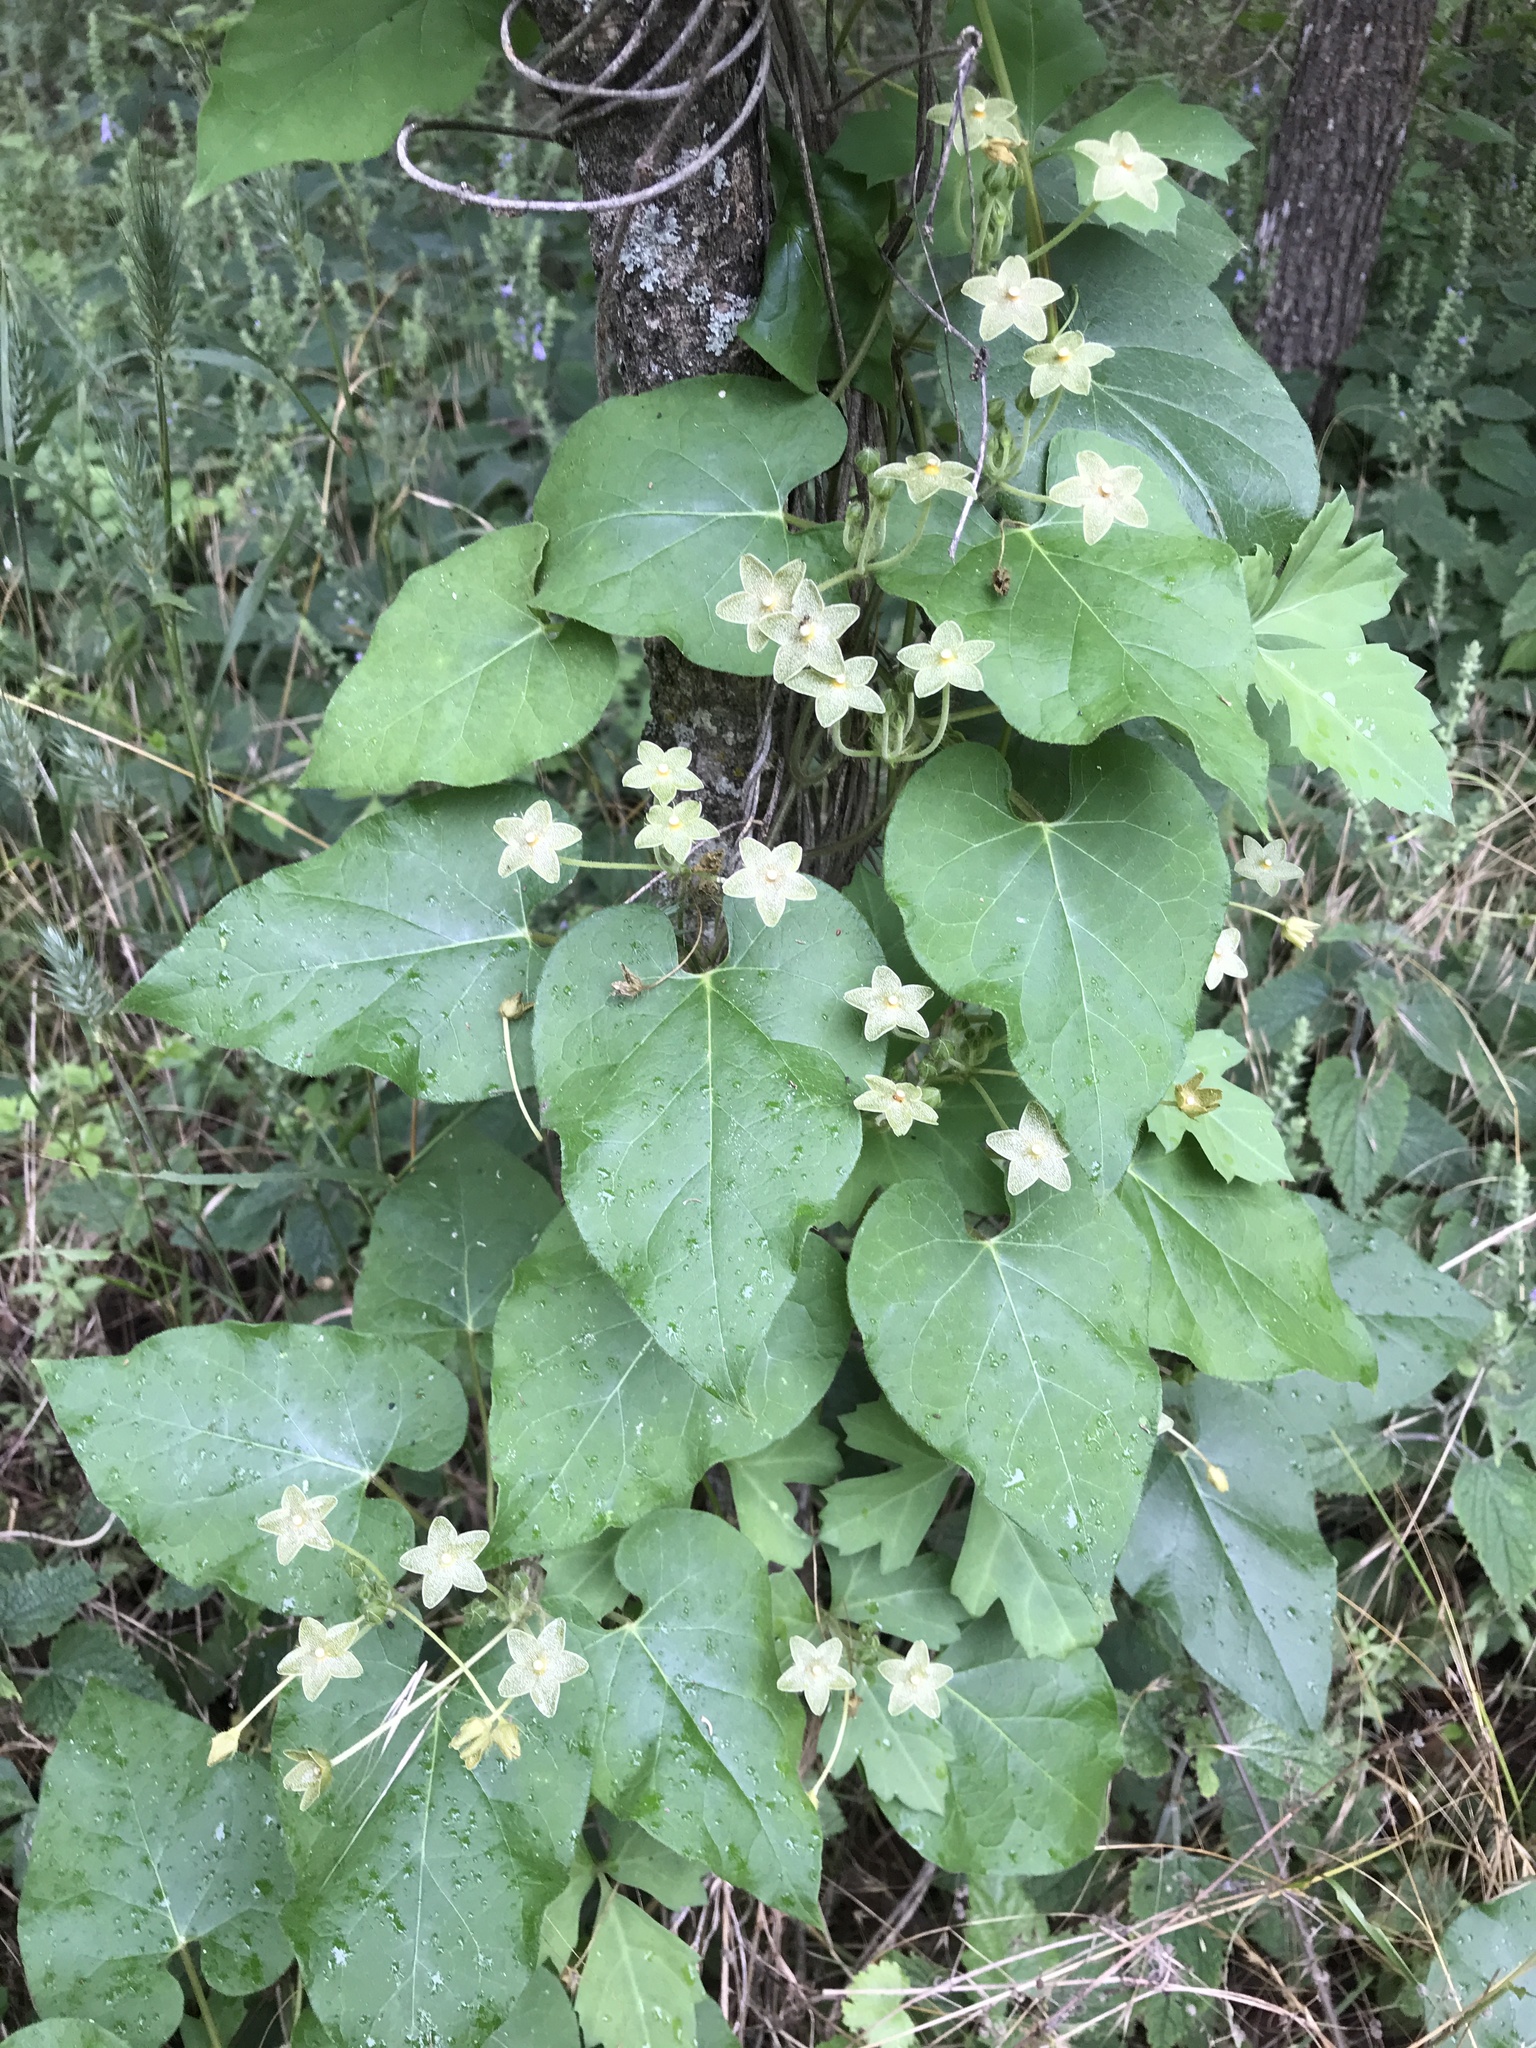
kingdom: Plantae
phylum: Tracheophyta
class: Magnoliopsida
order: Gentianales
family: Apocynaceae
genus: Dictyanthus
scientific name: Dictyanthus reticulatus
